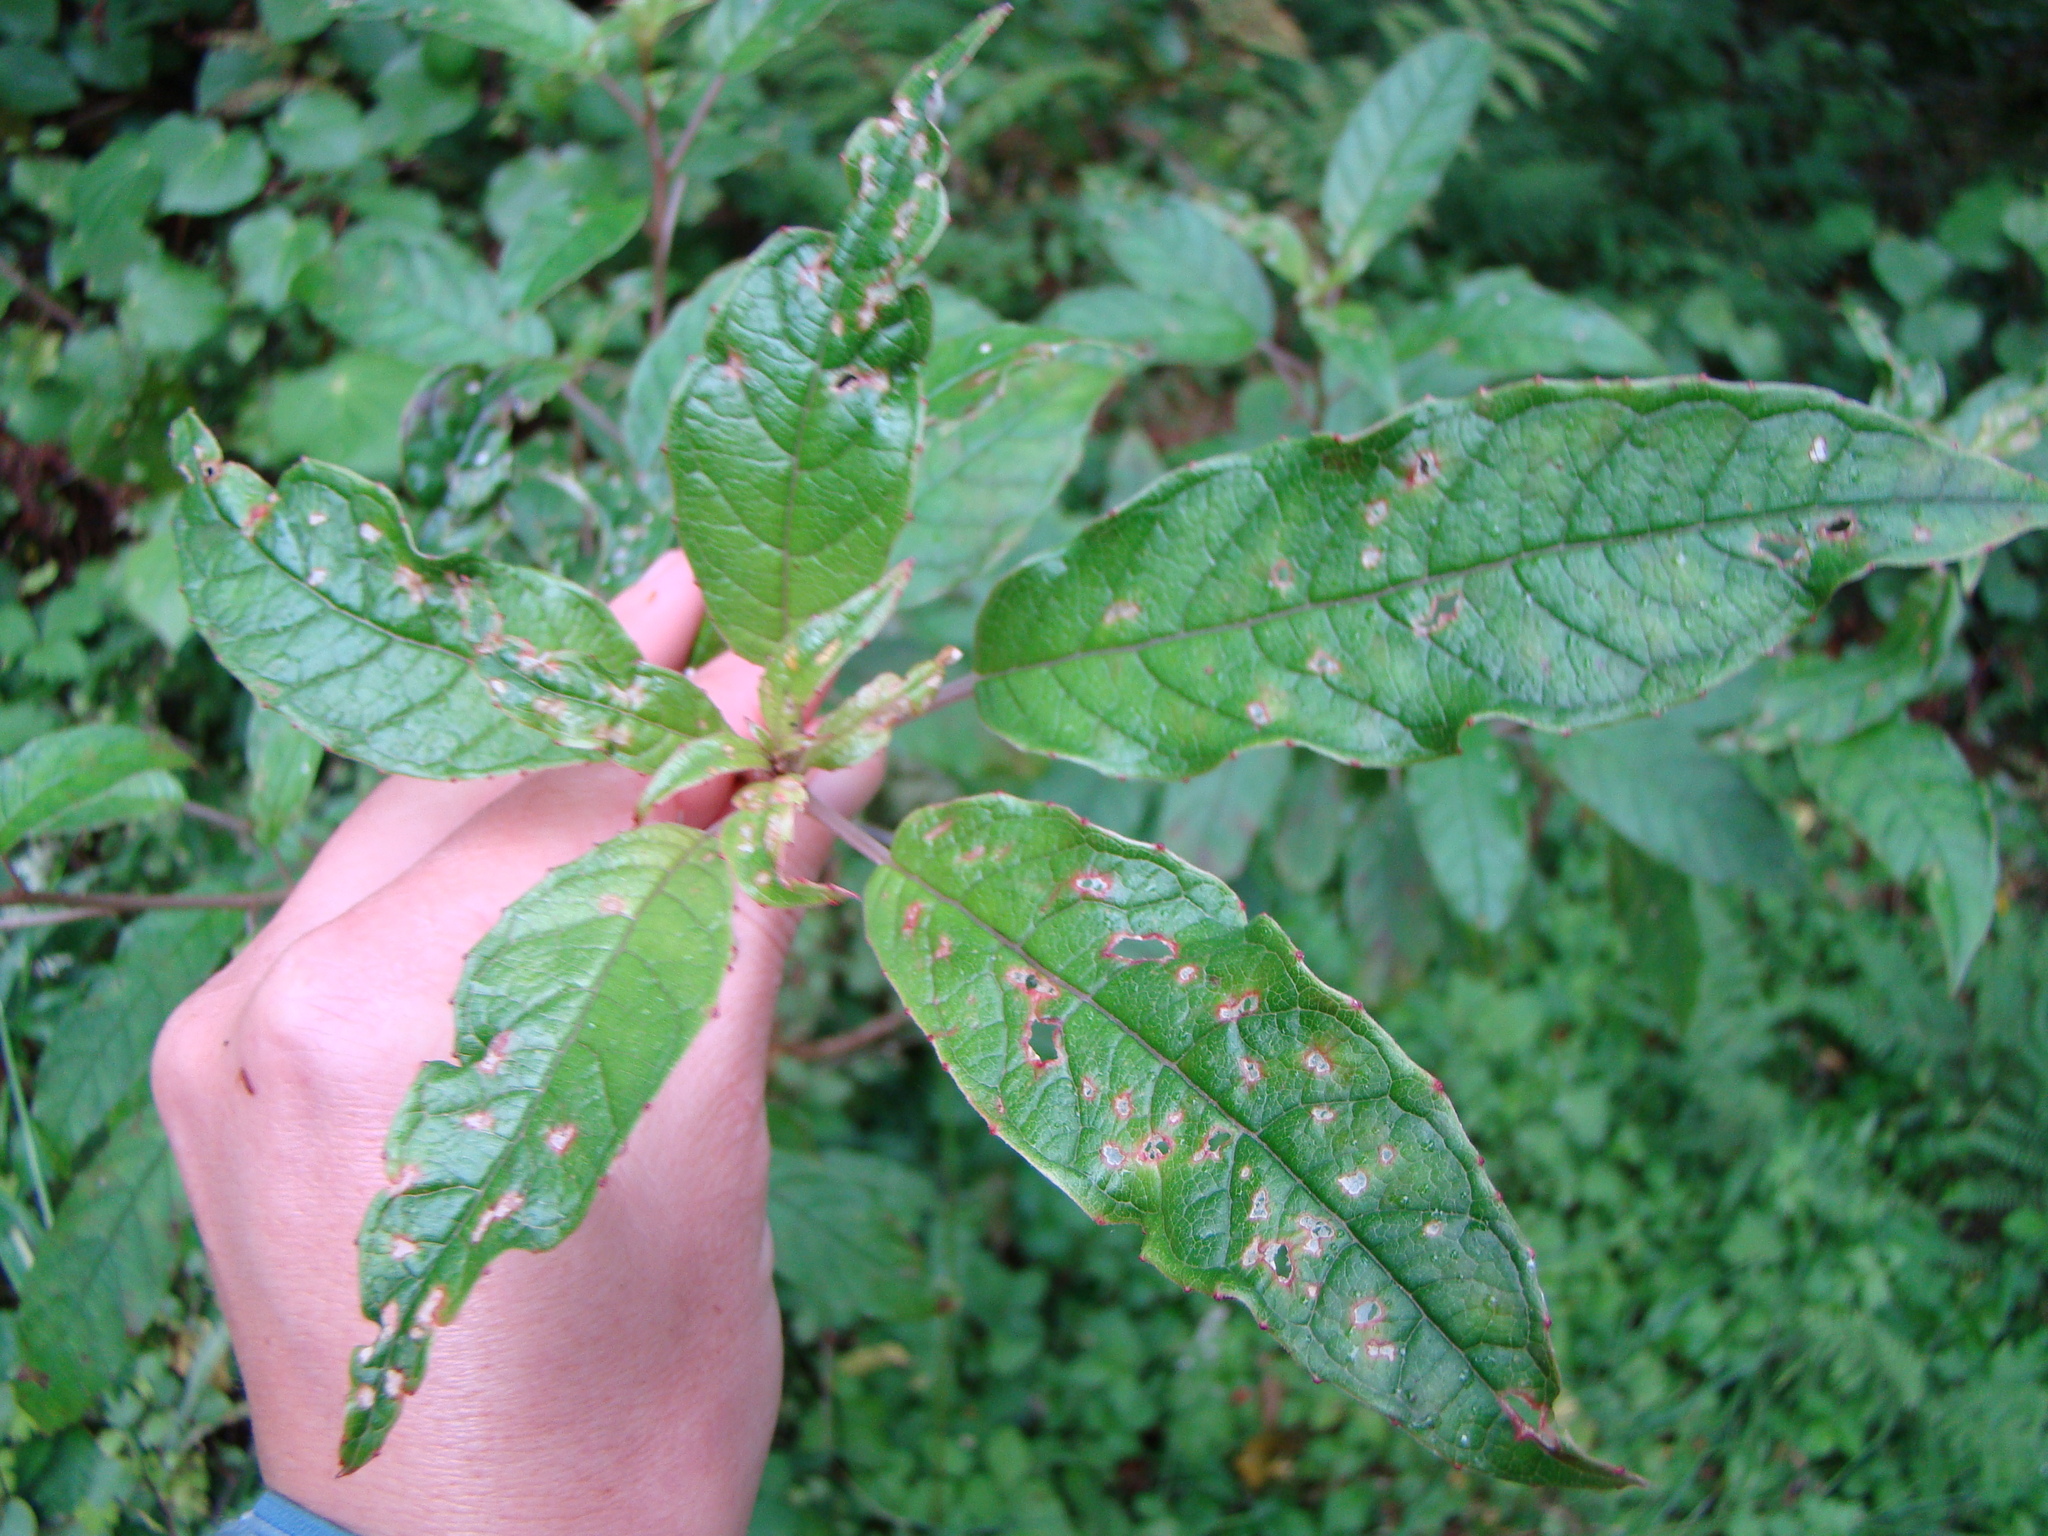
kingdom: Plantae
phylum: Tracheophyta
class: Magnoliopsida
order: Myrtales
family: Onagraceae
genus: Fuchsia
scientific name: Fuchsia excorticata
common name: Tree fuchsia
